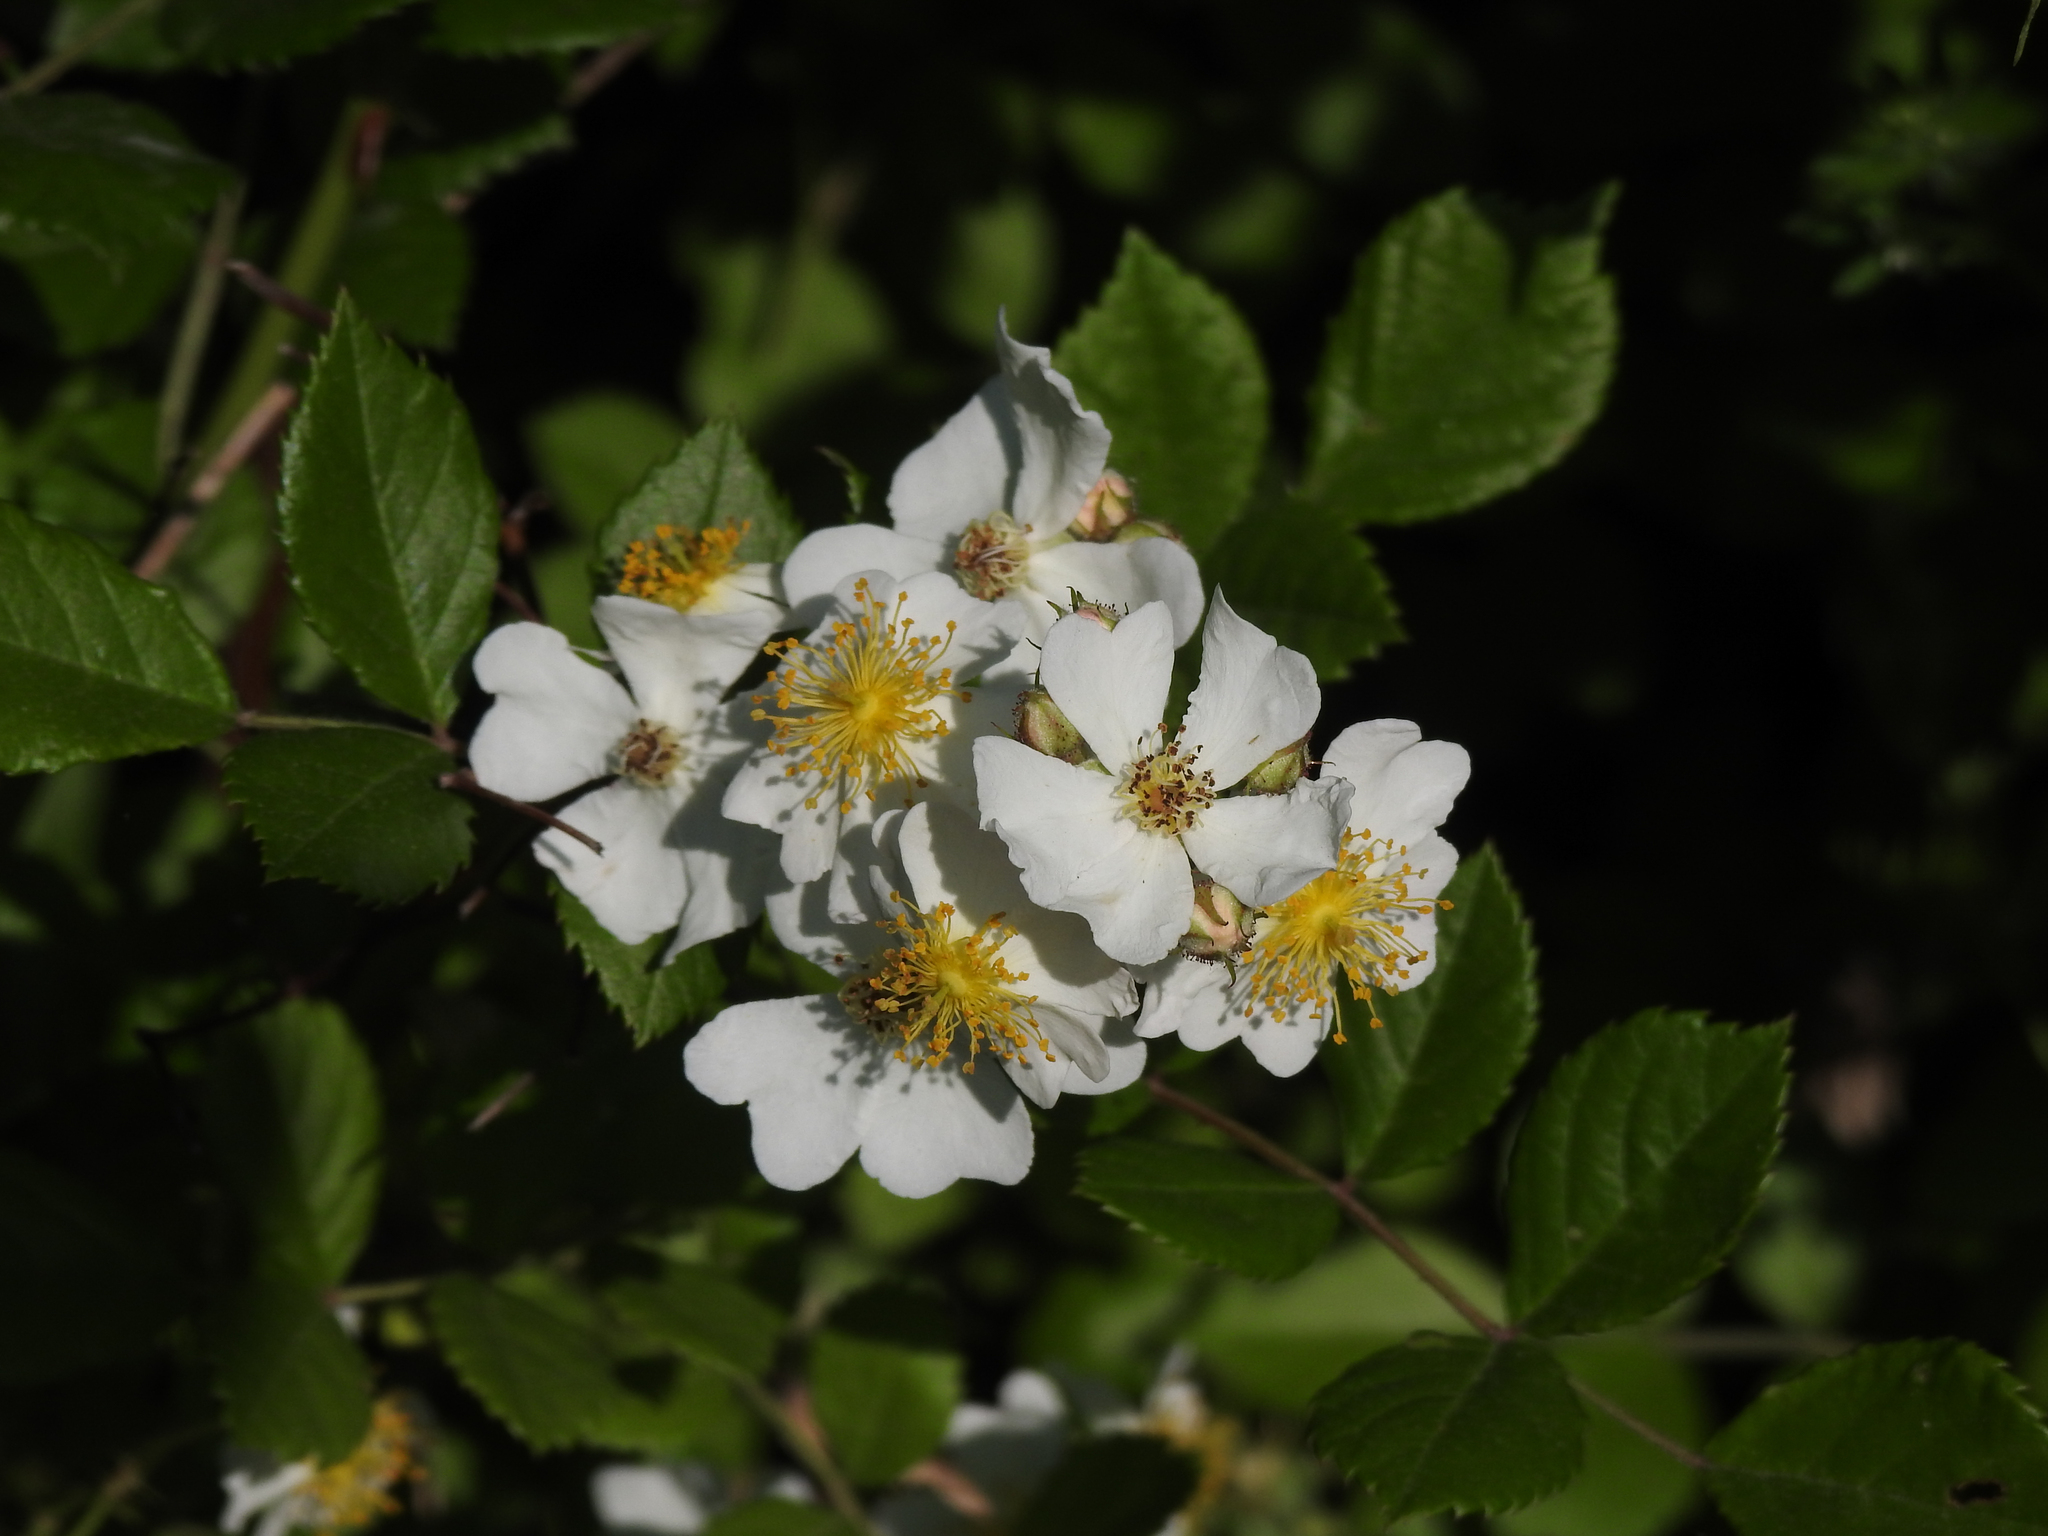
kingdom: Plantae
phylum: Tracheophyta
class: Magnoliopsida
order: Rosales
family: Rosaceae
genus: Rosa
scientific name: Rosa multiflora
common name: Multiflora rose
